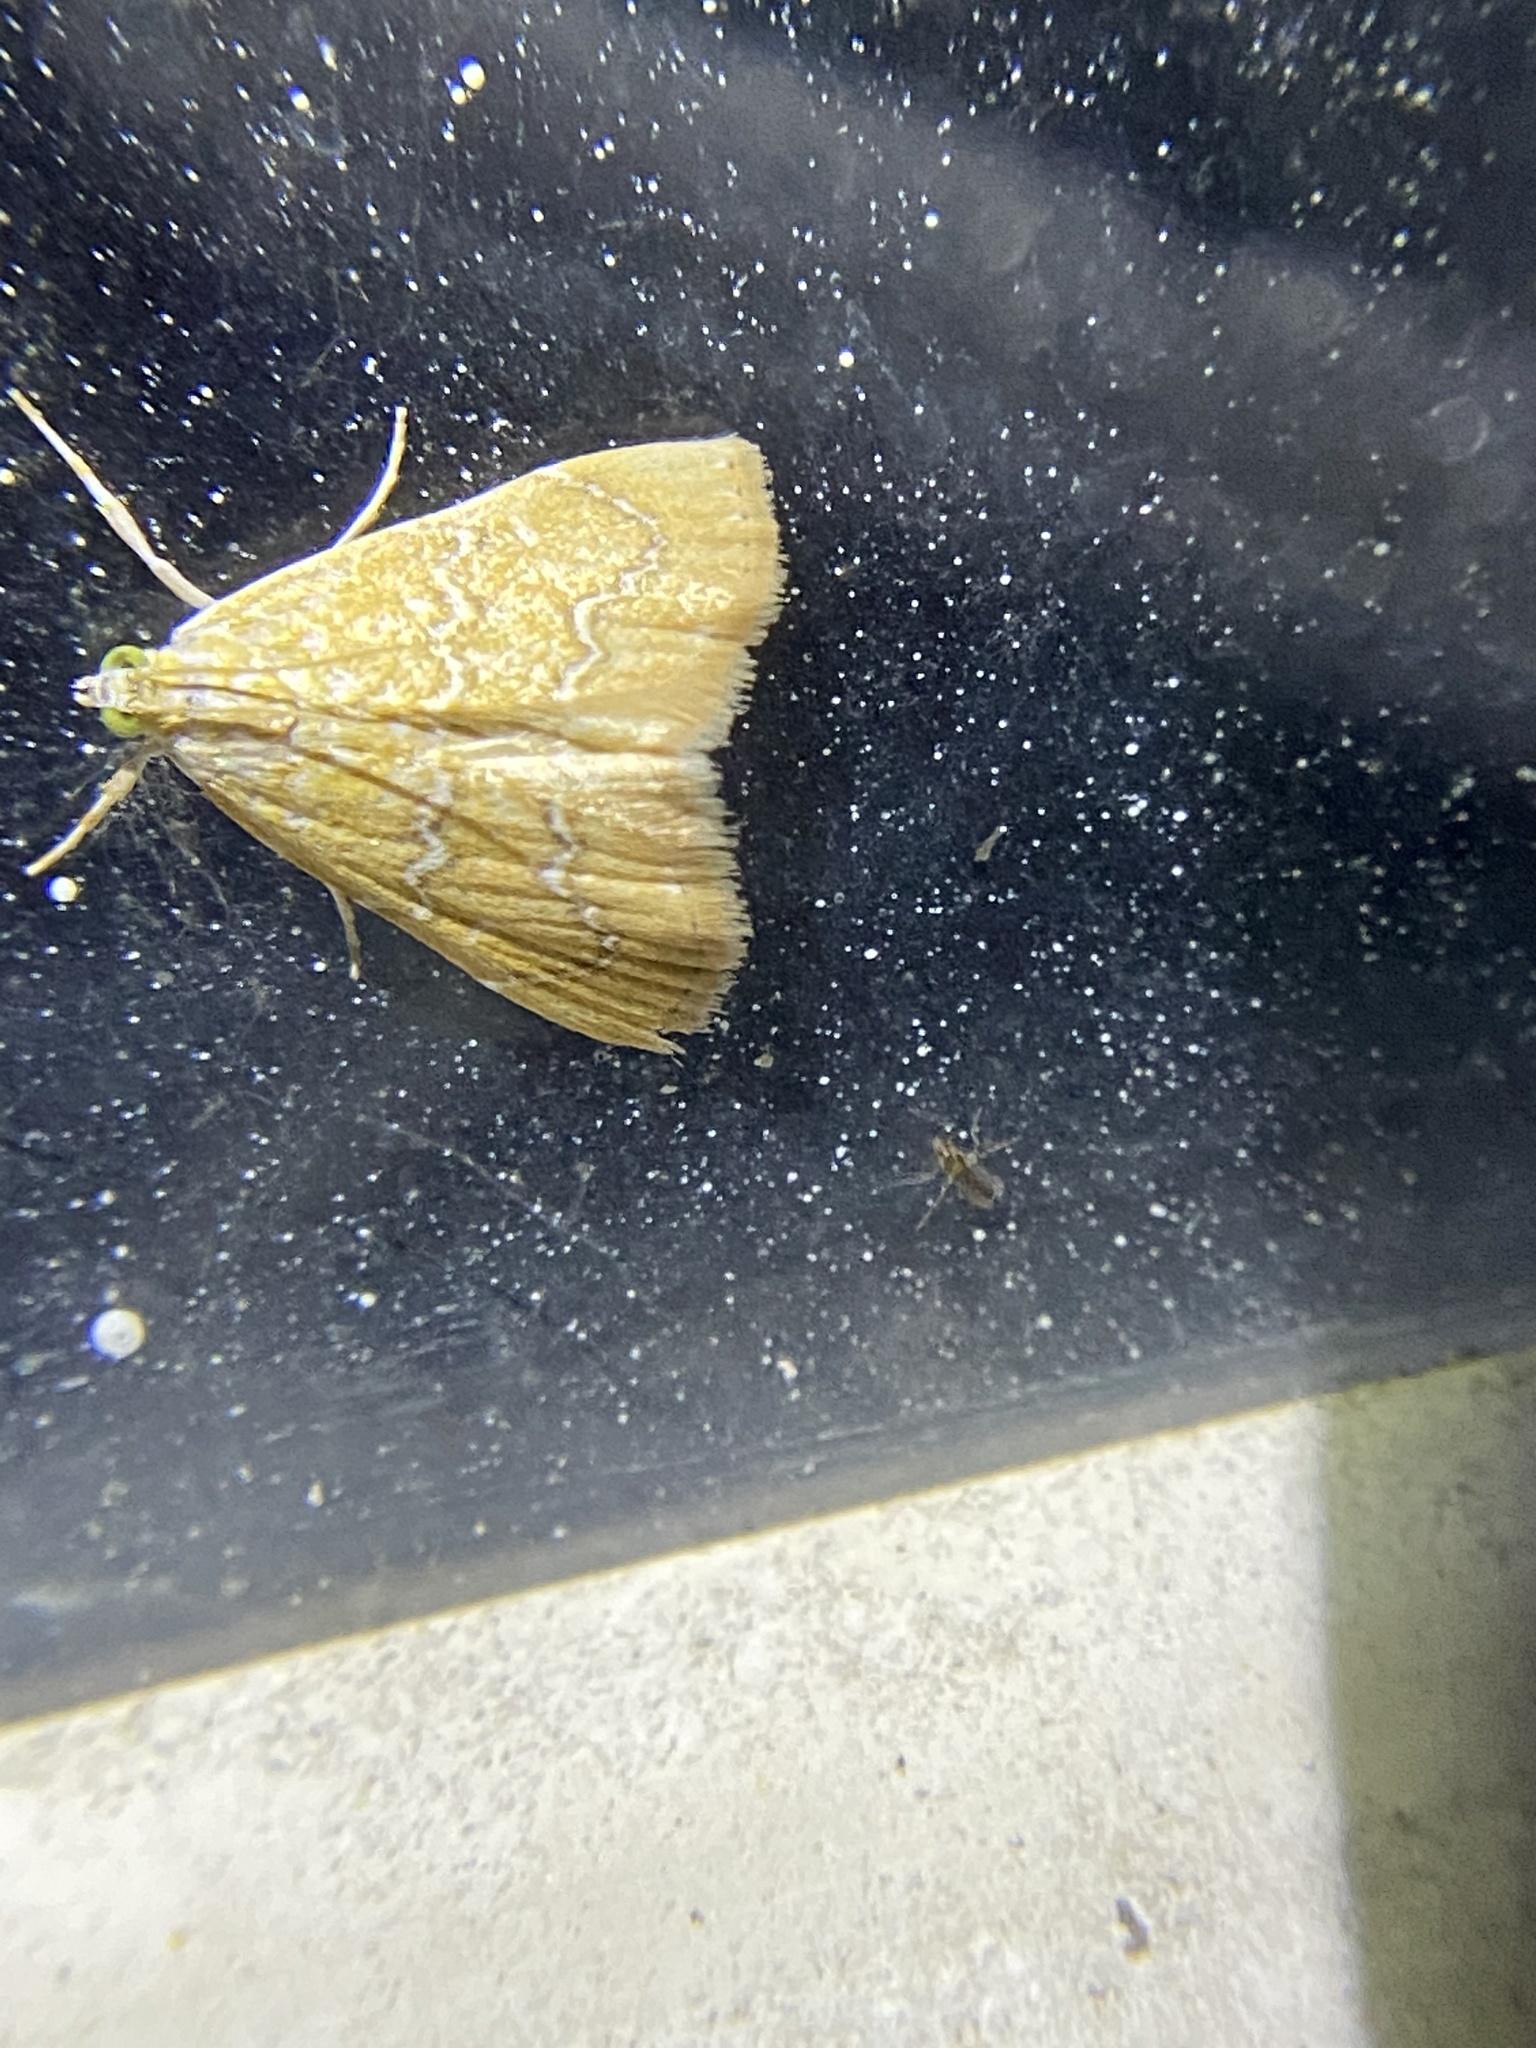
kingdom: Animalia
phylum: Arthropoda
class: Insecta
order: Lepidoptera
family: Crambidae
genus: Glaphyria
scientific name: Glaphyria sesquistrialis
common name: White-roped glaphyria
